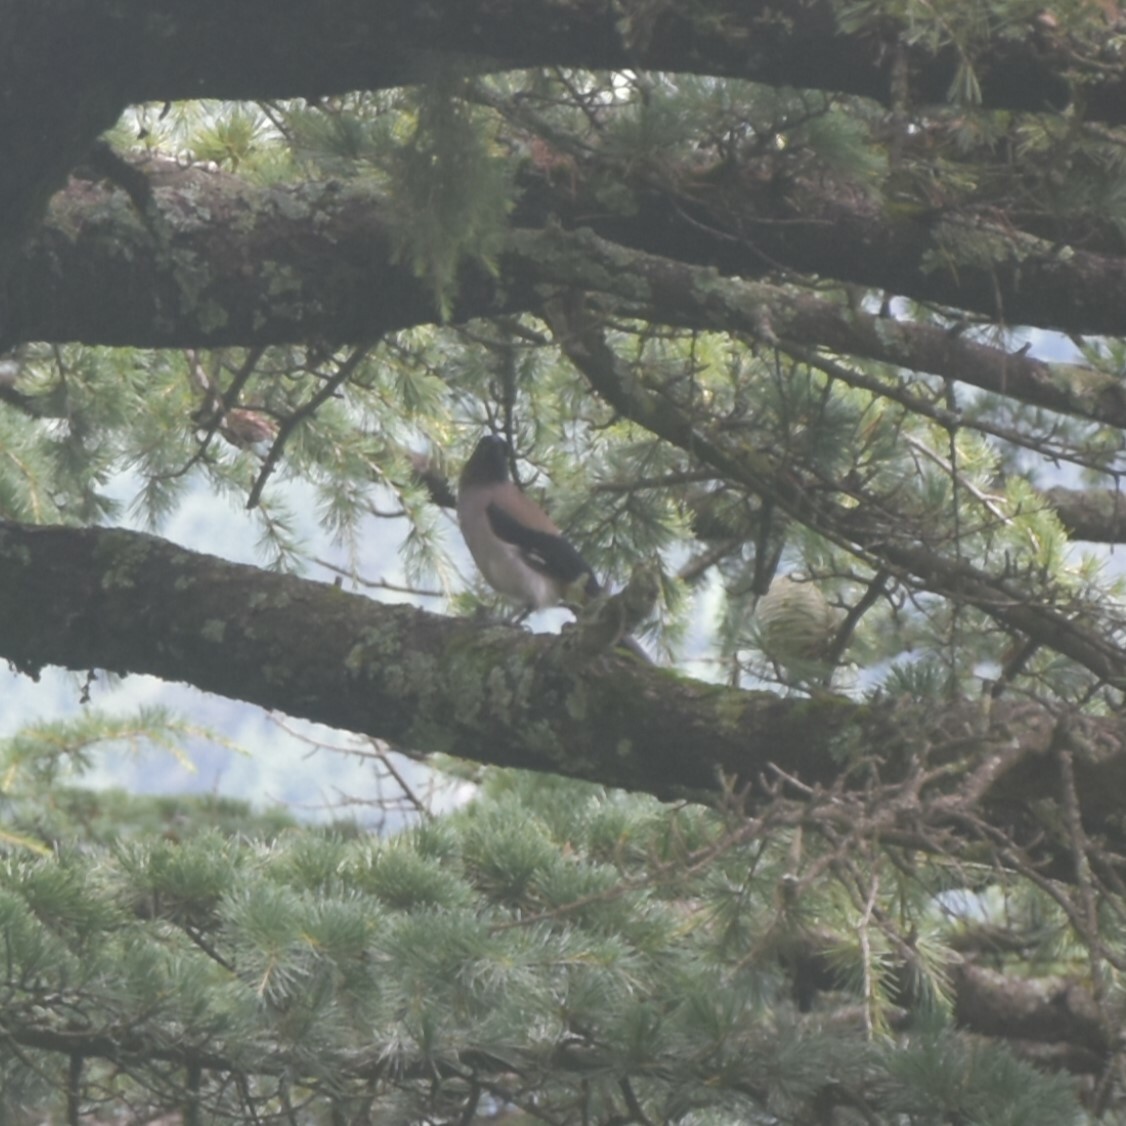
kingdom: Animalia
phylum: Chordata
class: Aves
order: Passeriformes
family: Corvidae
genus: Dendrocitta
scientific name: Dendrocitta formosae
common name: Grey treepie
